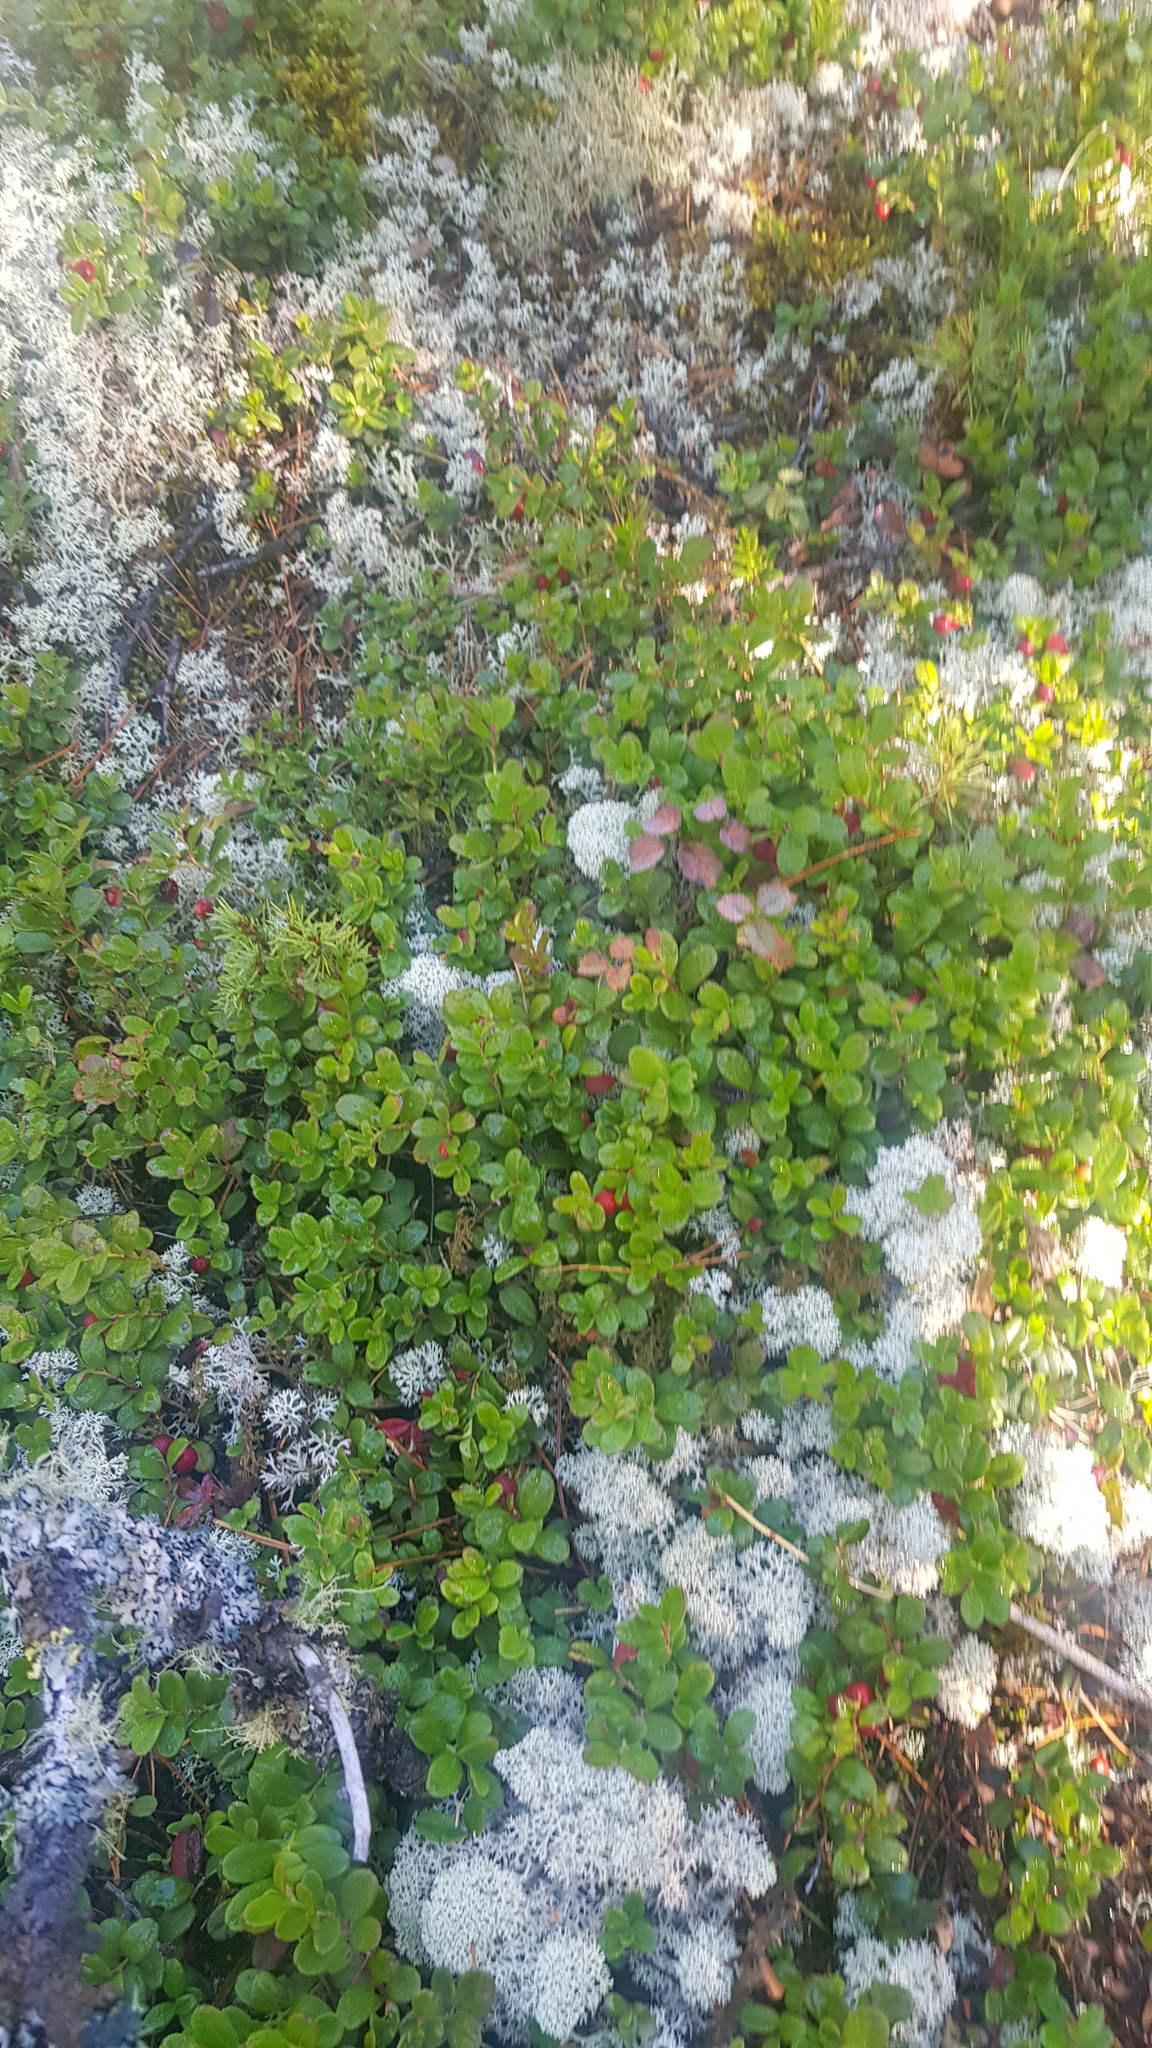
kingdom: Plantae
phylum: Tracheophyta
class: Magnoliopsida
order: Ericales
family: Ericaceae
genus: Vaccinium
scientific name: Vaccinium vitis-idaea
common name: Cowberry
